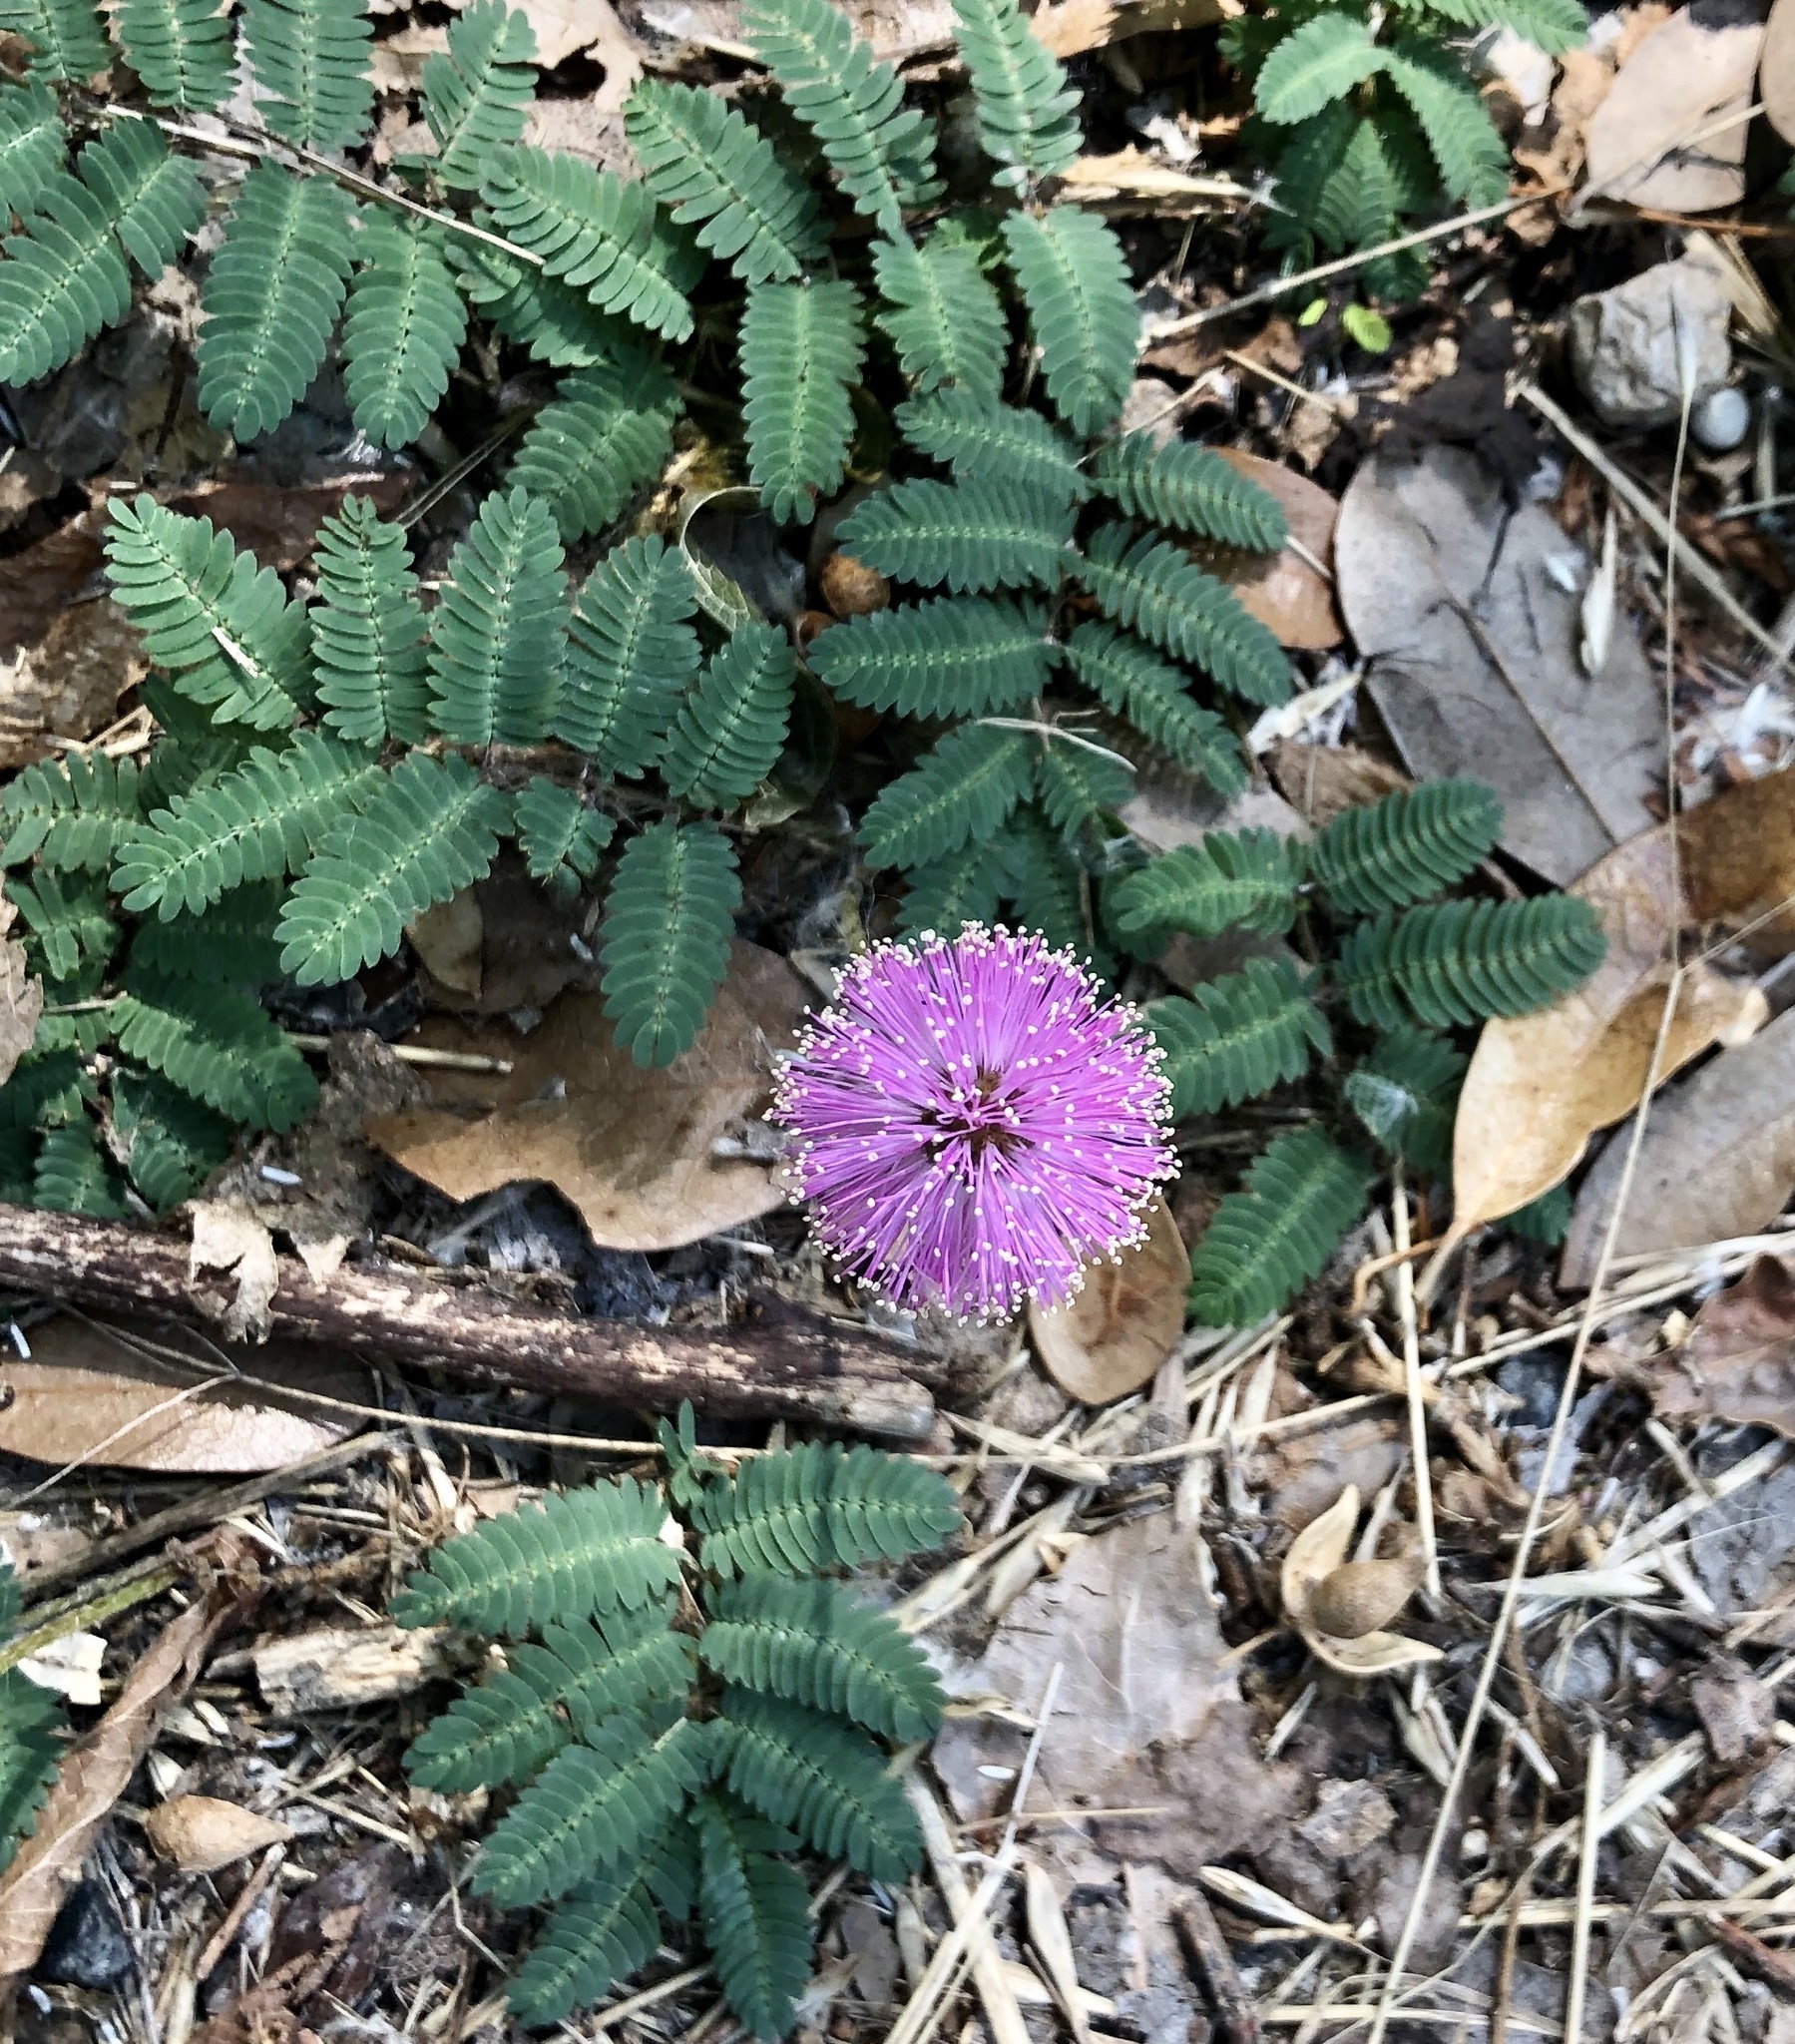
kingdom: Plantae
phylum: Tracheophyta
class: Magnoliopsida
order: Fabales
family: Fabaceae
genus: Mimosa
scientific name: Mimosa strigillosa
